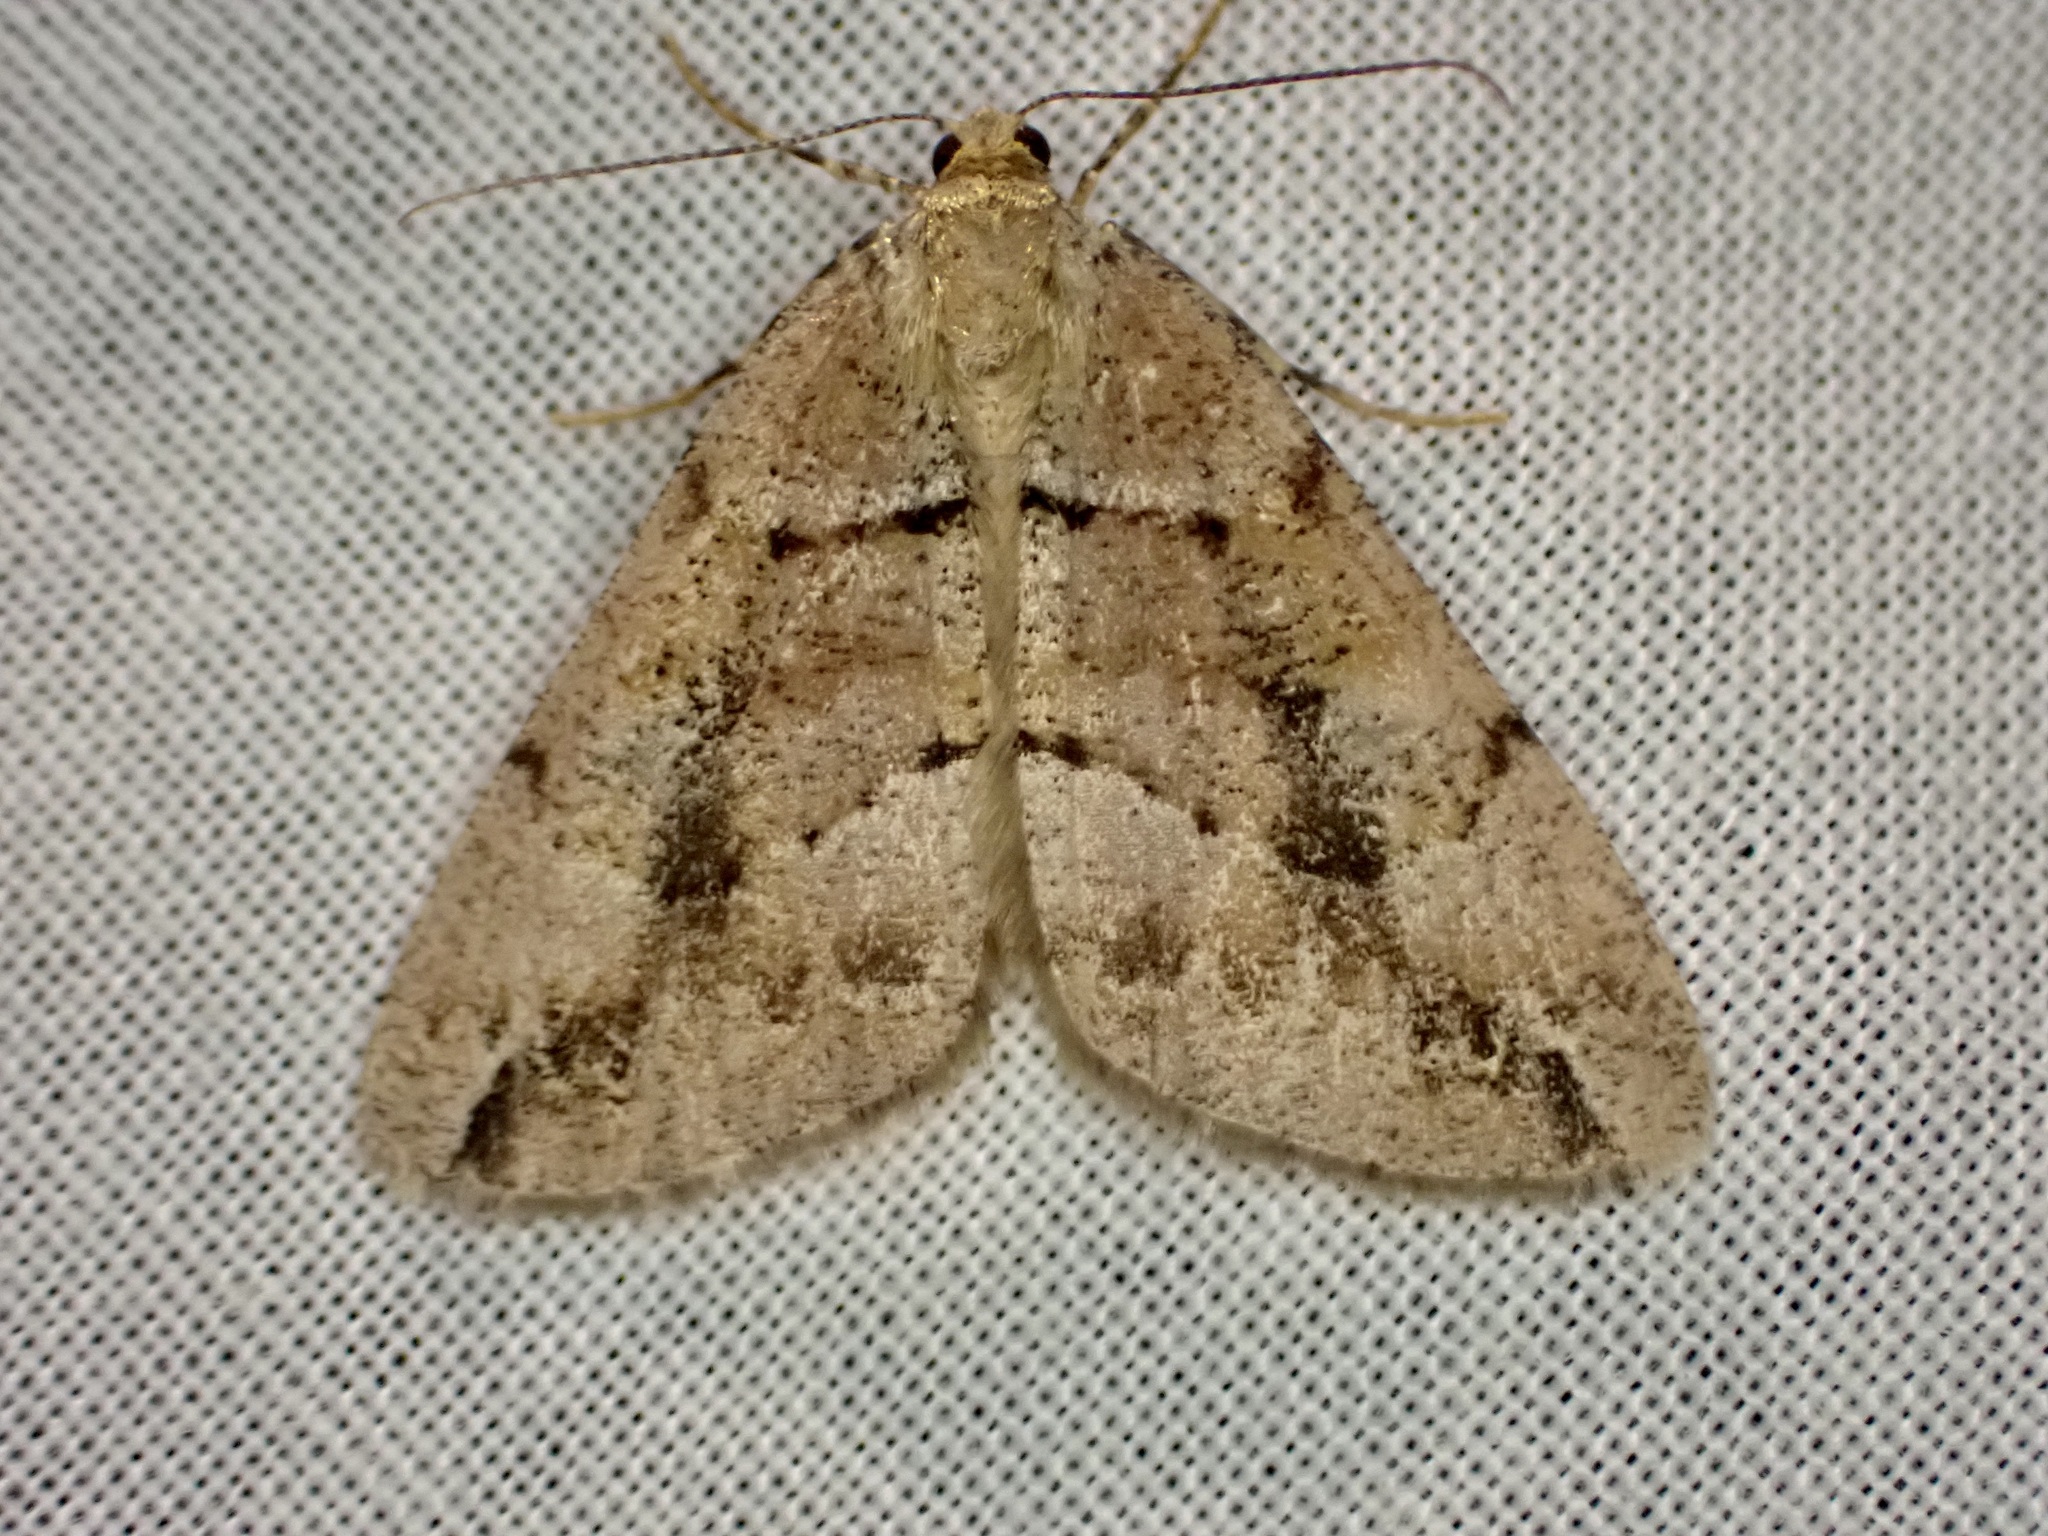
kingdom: Animalia
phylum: Arthropoda
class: Insecta
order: Lepidoptera
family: Geometridae
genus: Pseudocoremia
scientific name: Pseudocoremia productata
